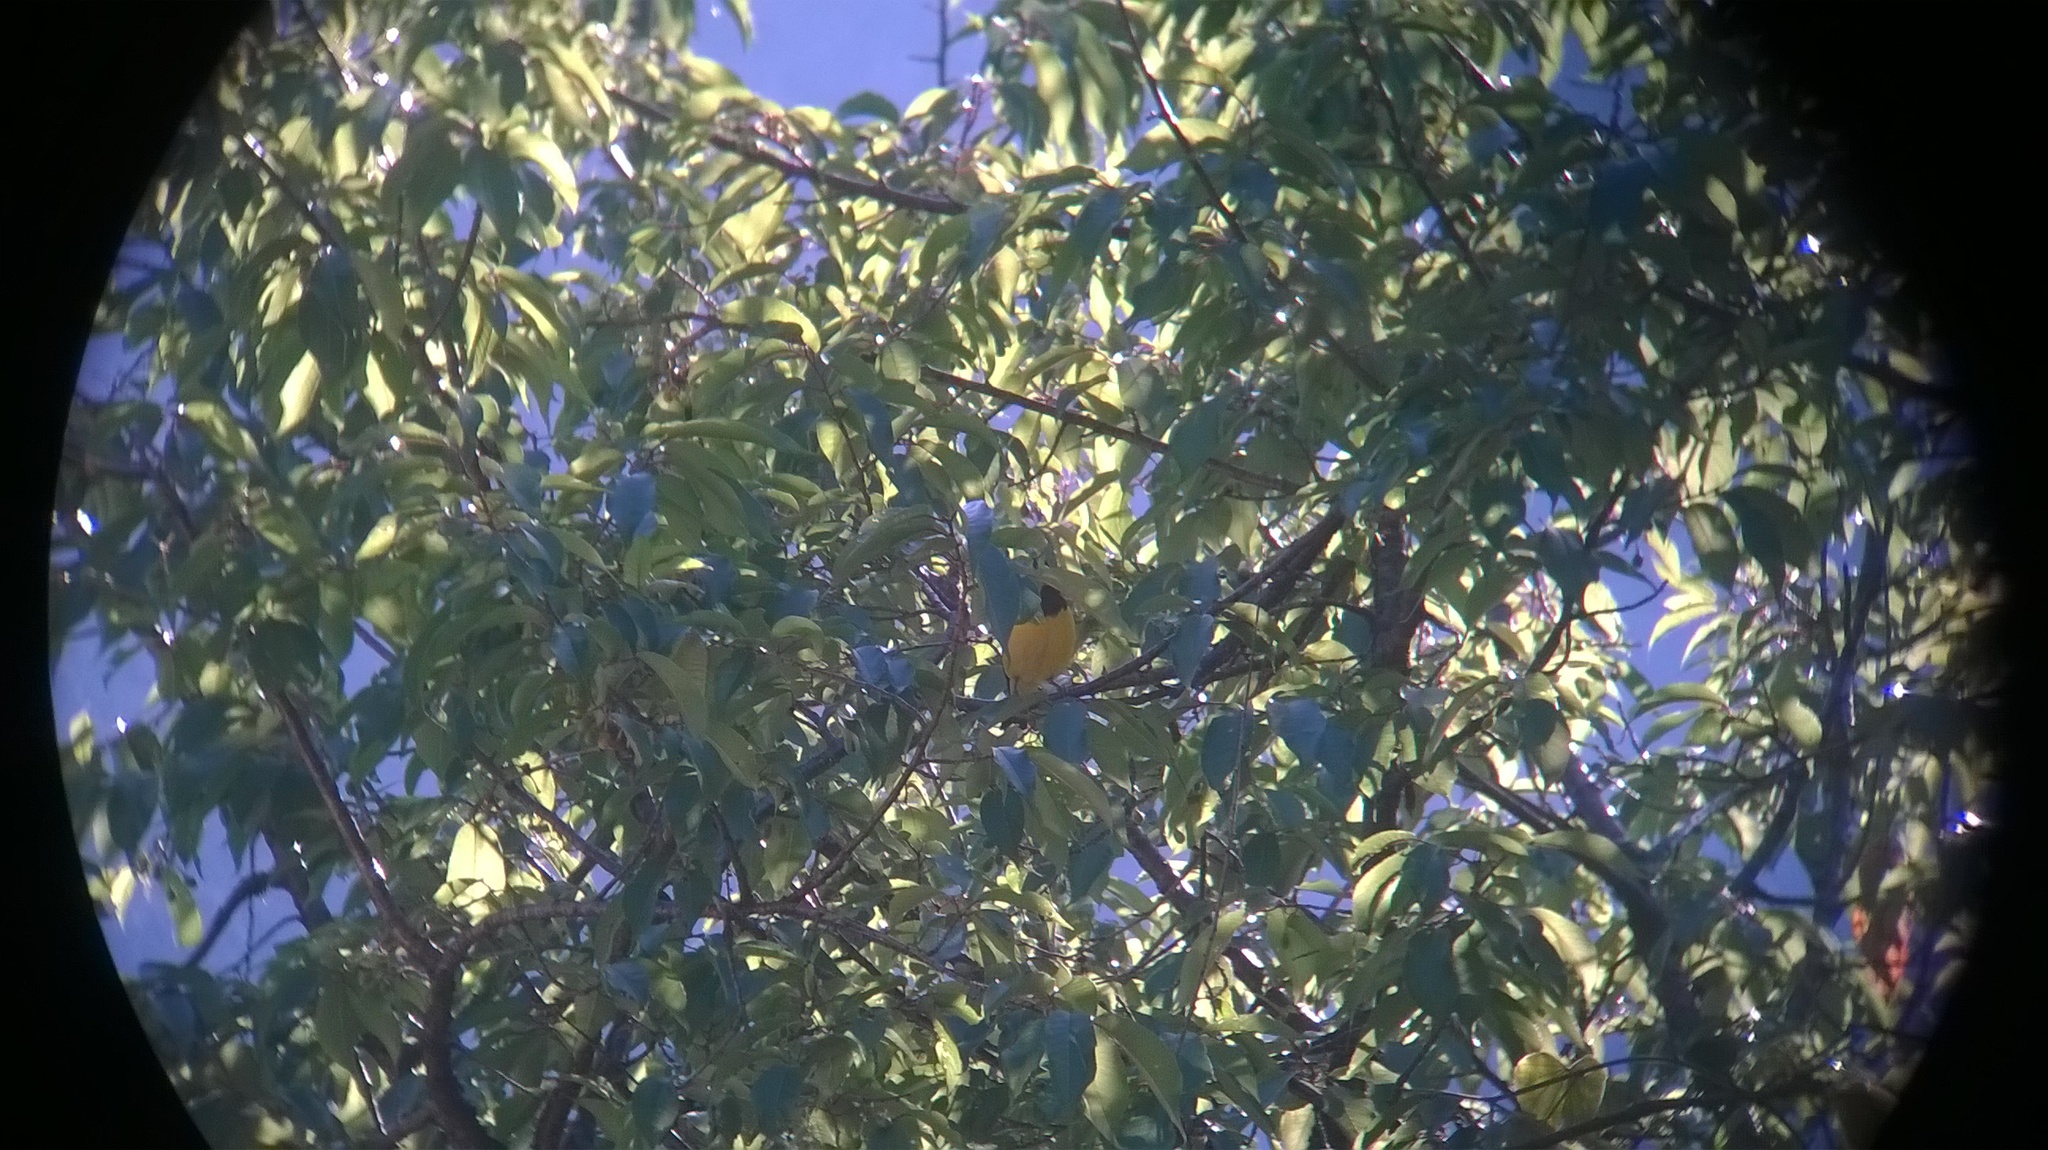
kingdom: Animalia
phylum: Chordata
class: Aves
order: Passeriformes
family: Fringillidae
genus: Mycerobas
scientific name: Mycerobas melanozanthos
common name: Spot-winged grosbeak
